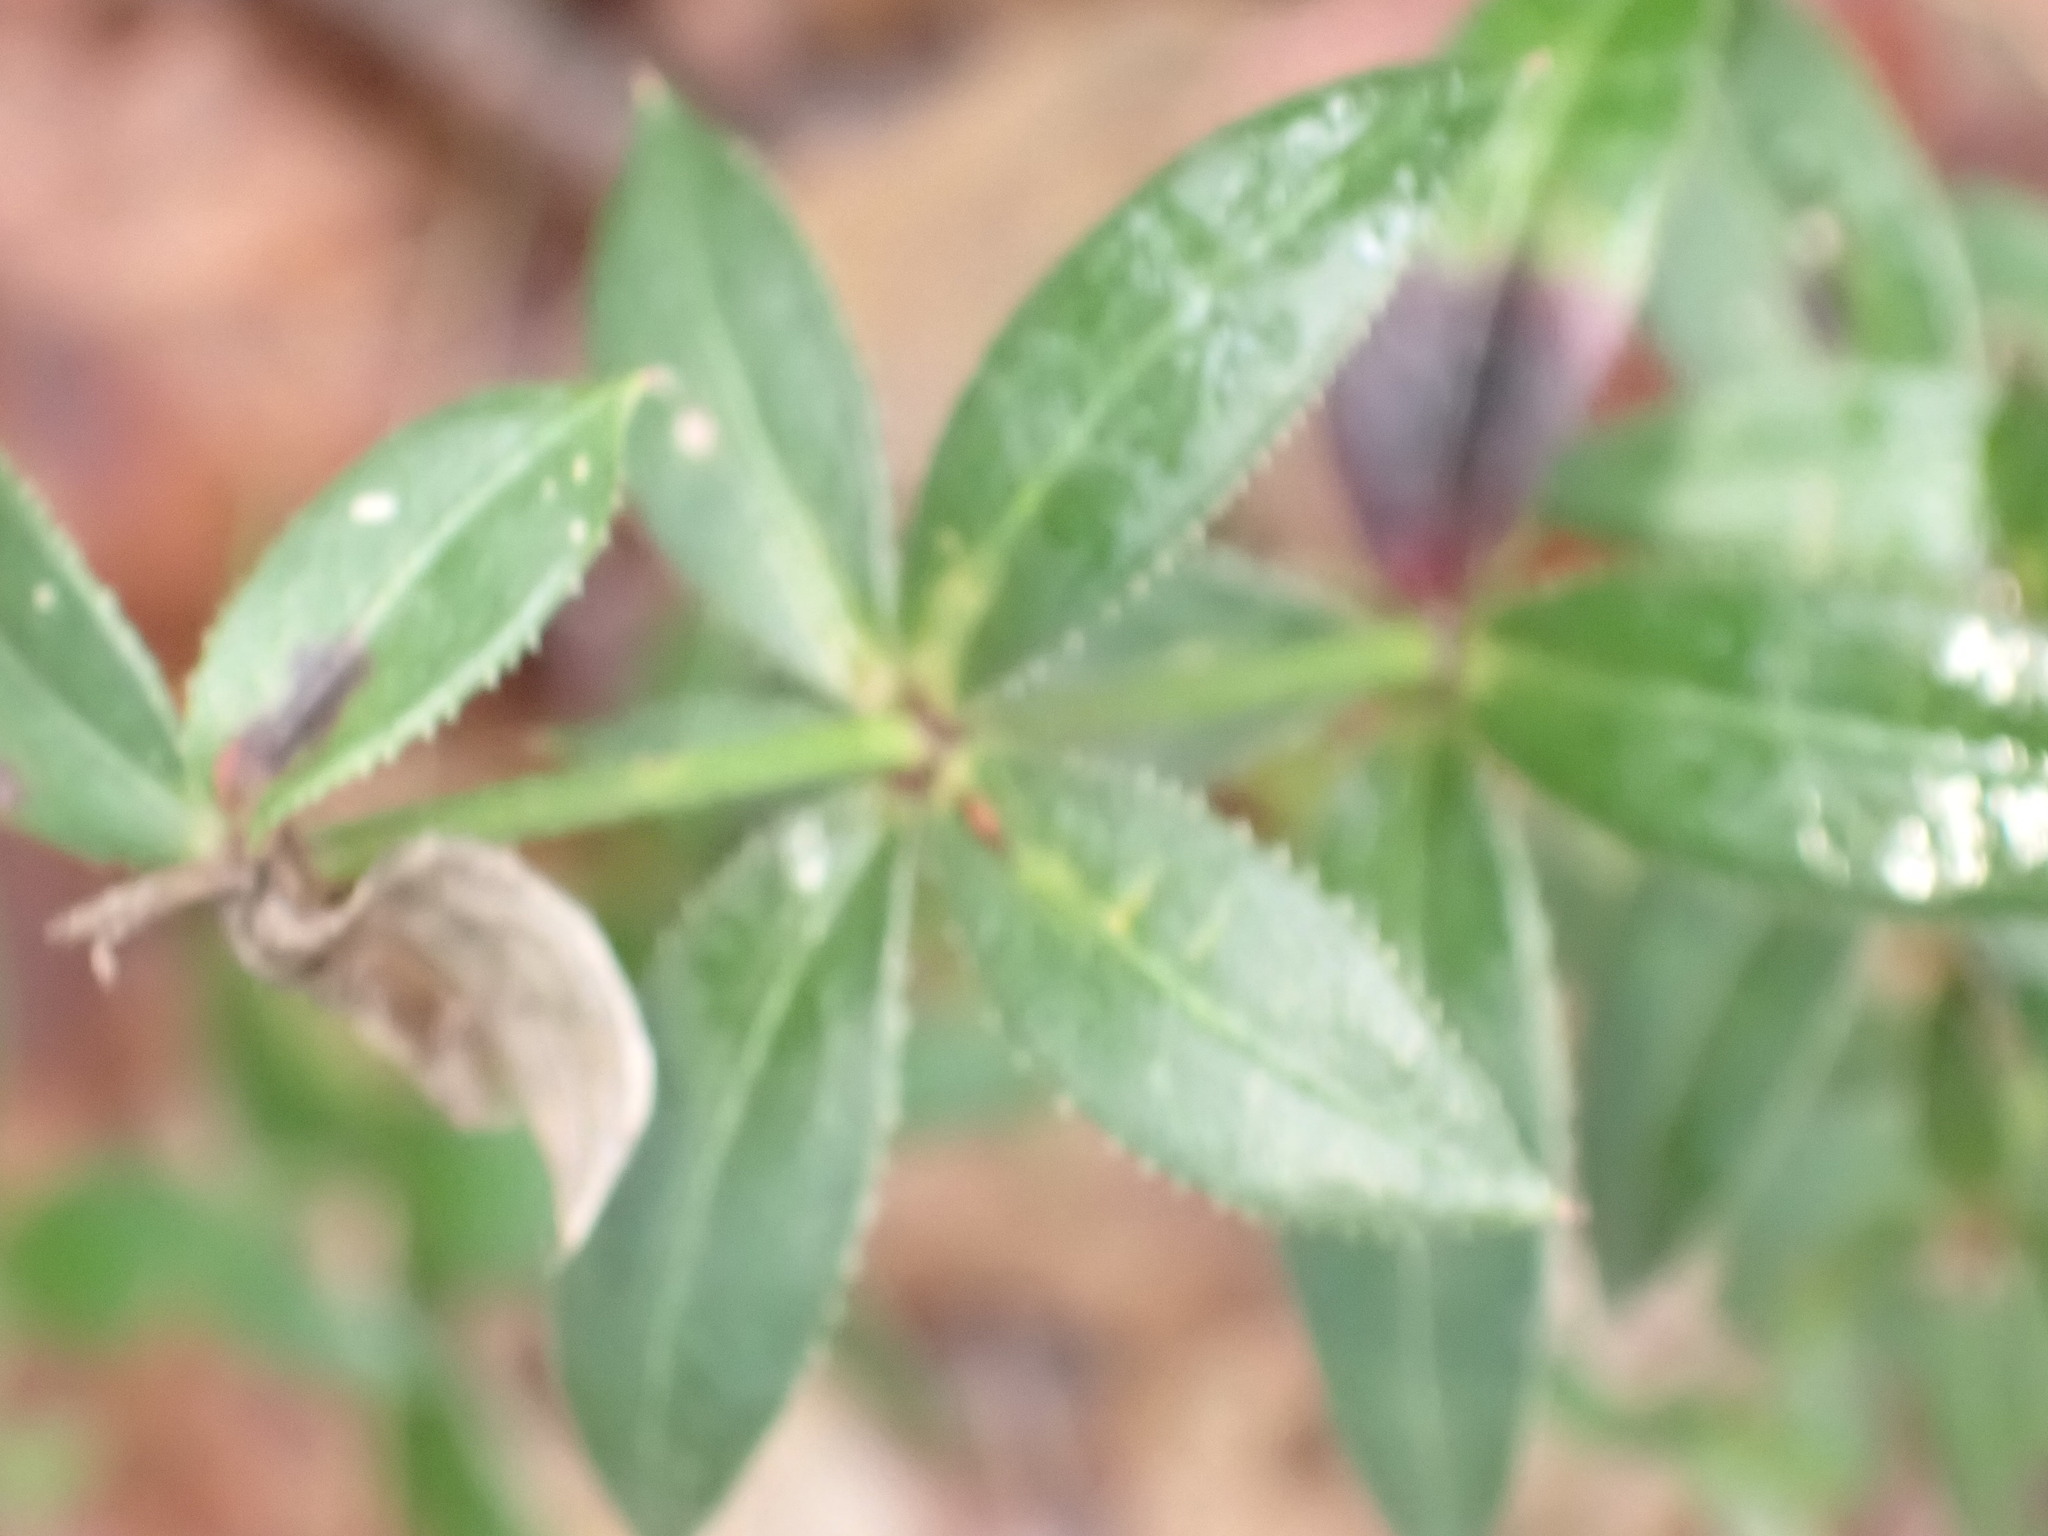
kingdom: Plantae
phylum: Tracheophyta
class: Magnoliopsida
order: Gentianales
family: Rubiaceae
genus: Rubia
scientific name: Rubia peregrina
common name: Wild madder
